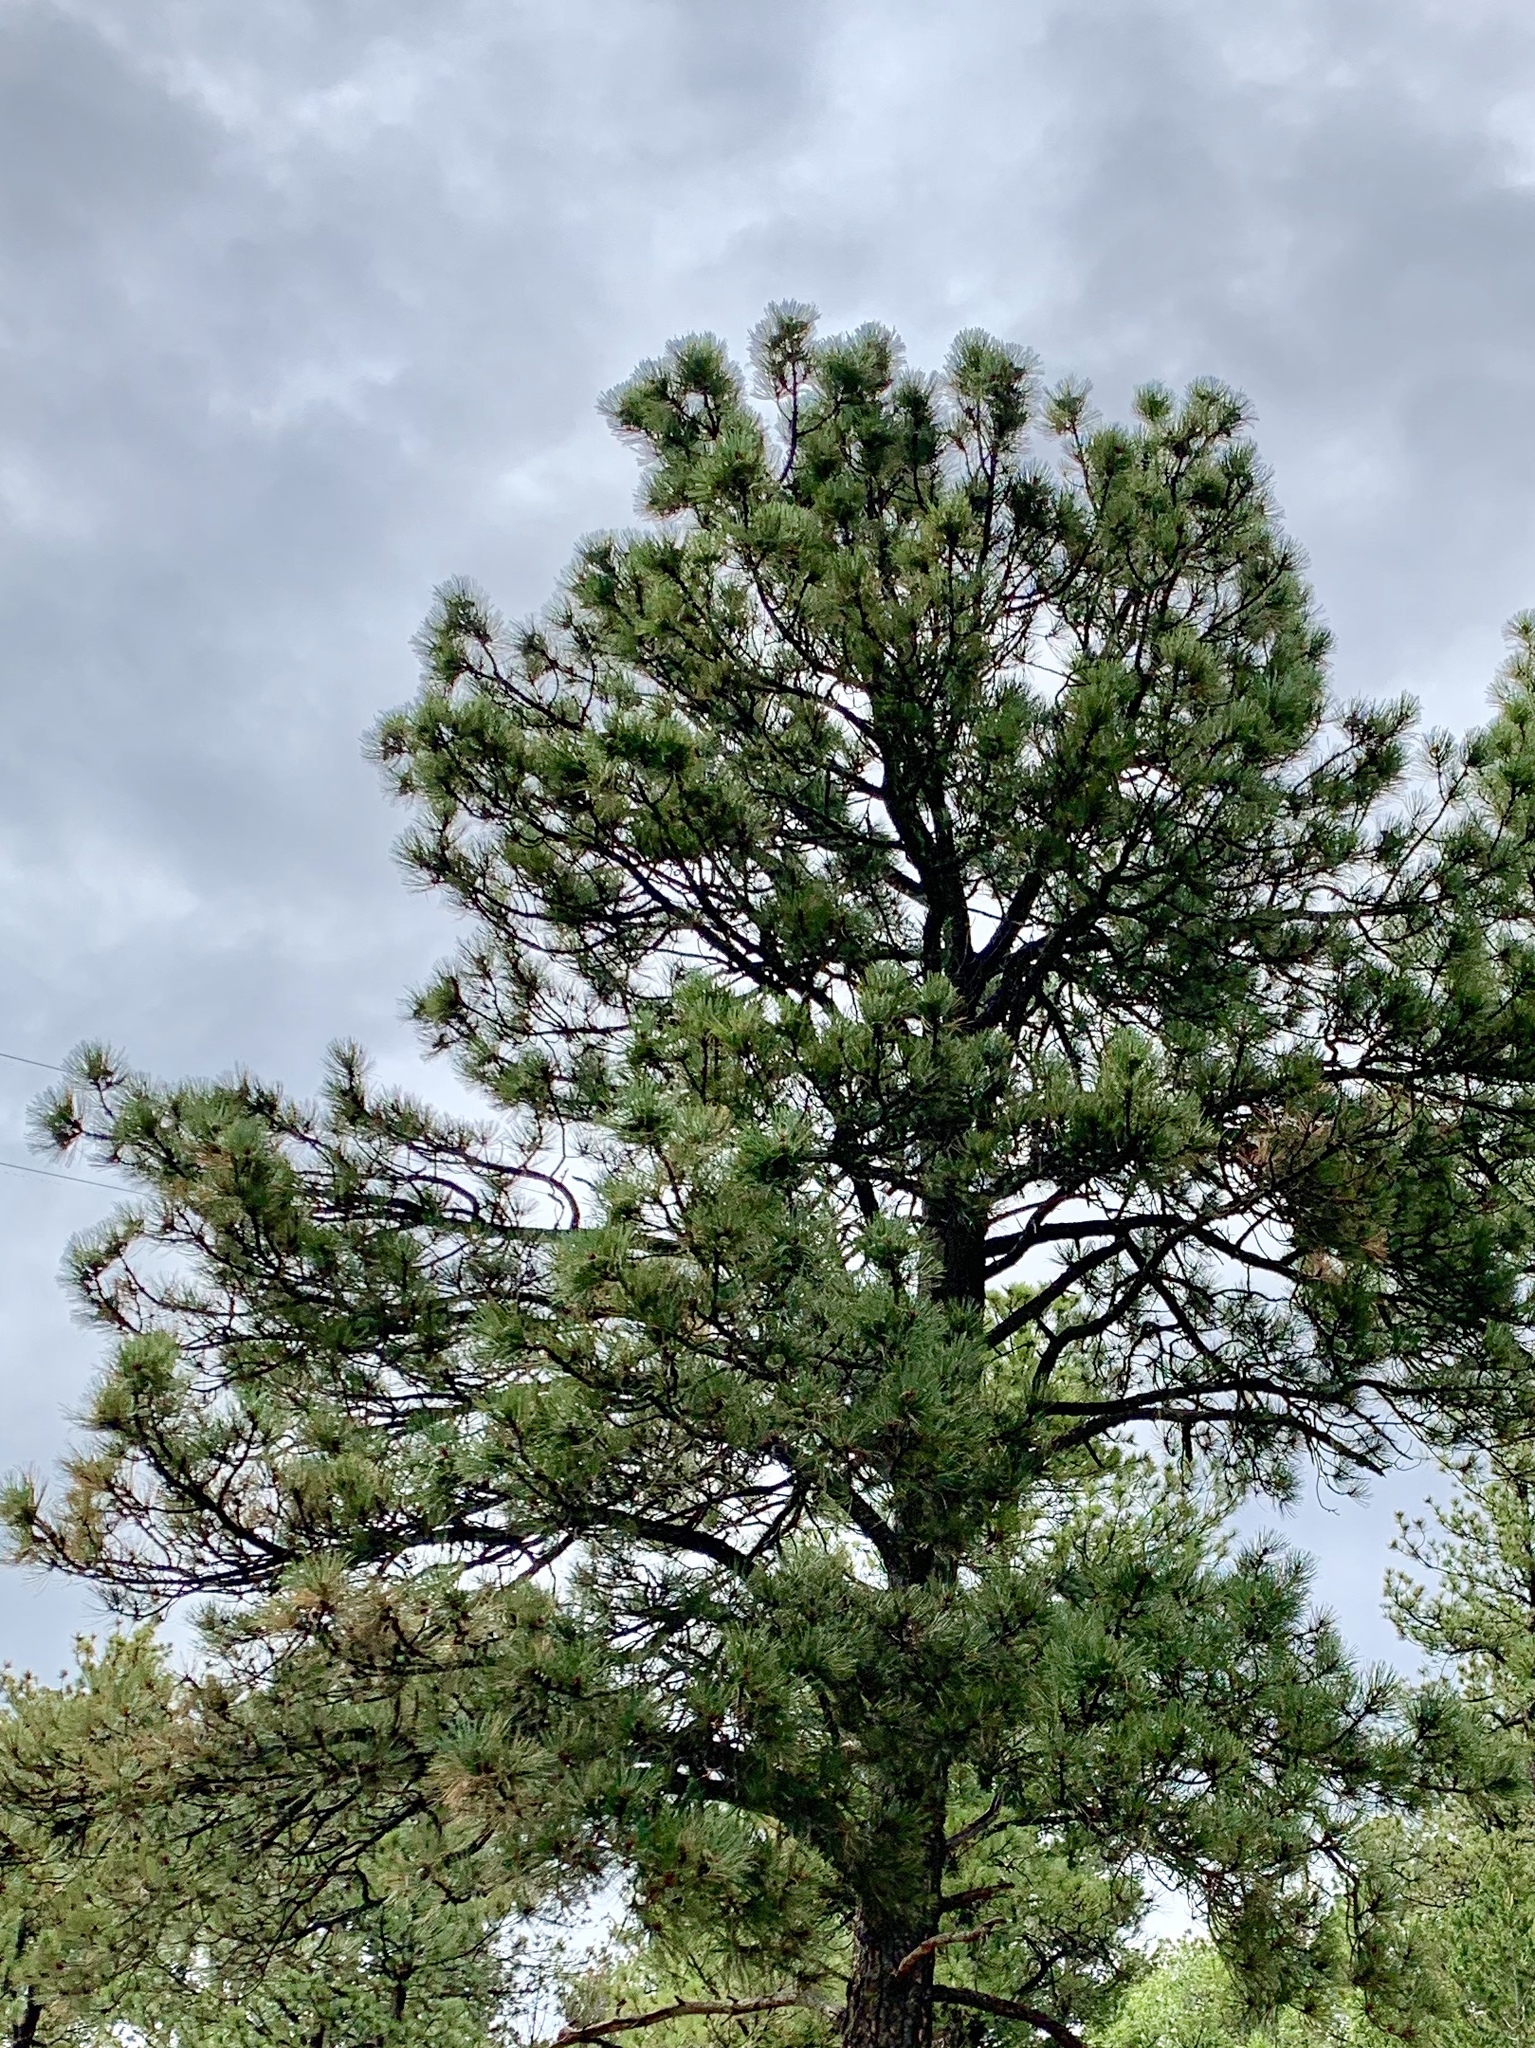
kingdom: Plantae
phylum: Tracheophyta
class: Pinopsida
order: Pinales
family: Pinaceae
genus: Pinus
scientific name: Pinus ponderosa
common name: Western yellow-pine
